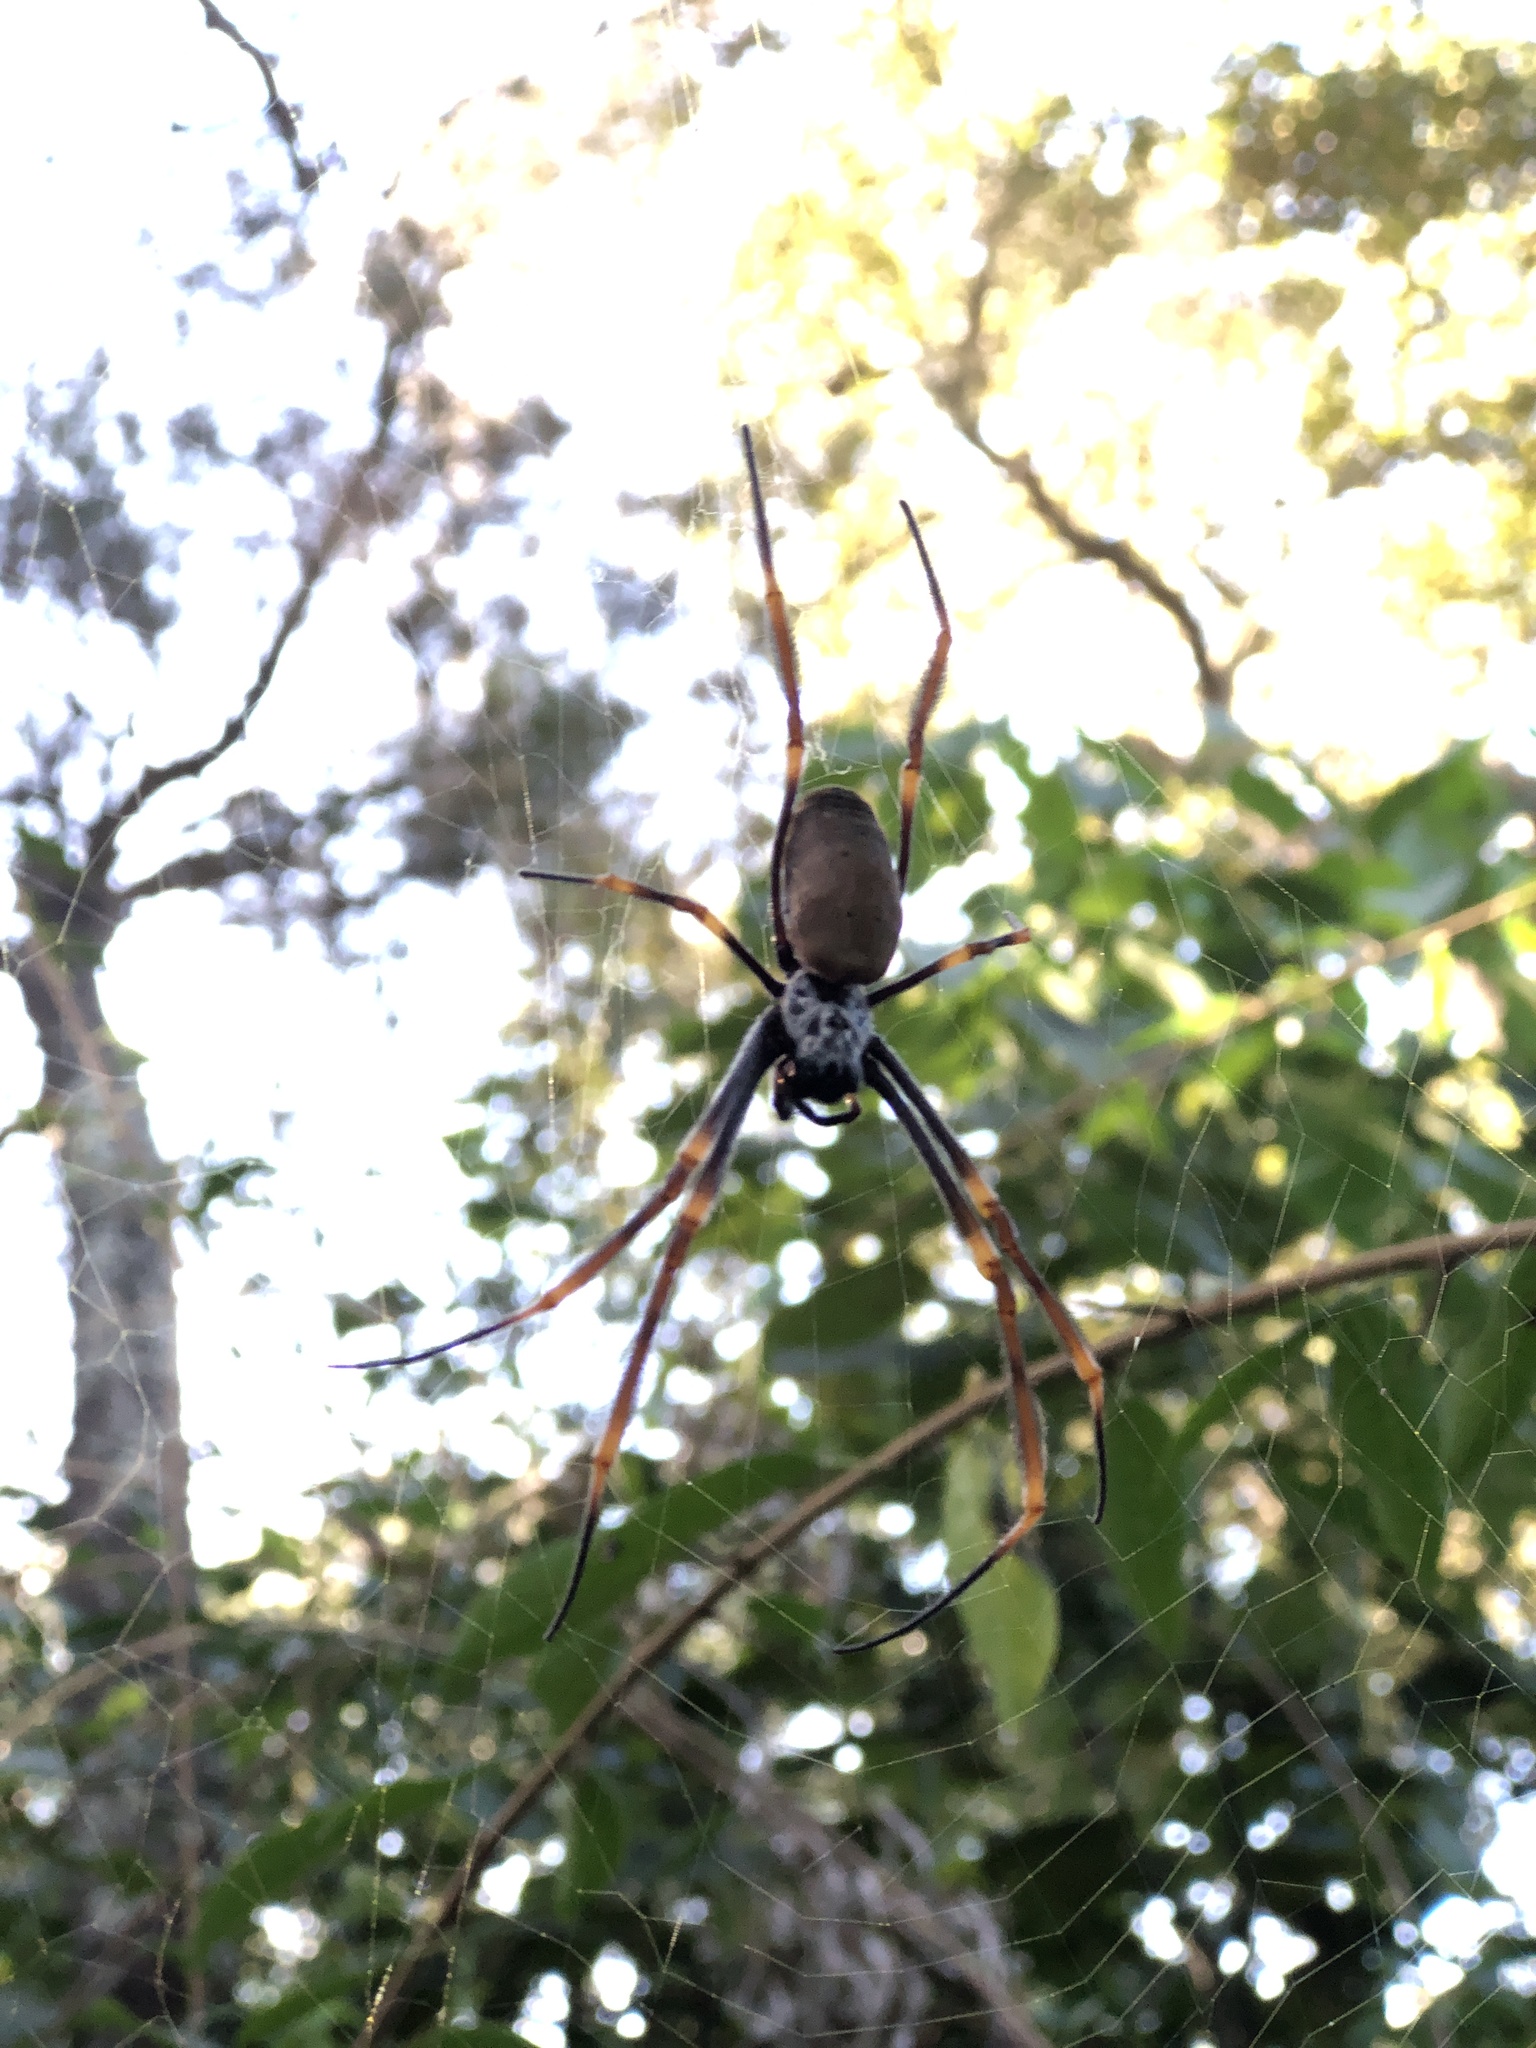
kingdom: Animalia
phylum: Arthropoda
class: Arachnida
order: Araneae
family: Araneidae
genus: Trichonephila
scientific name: Trichonephila plumipes
